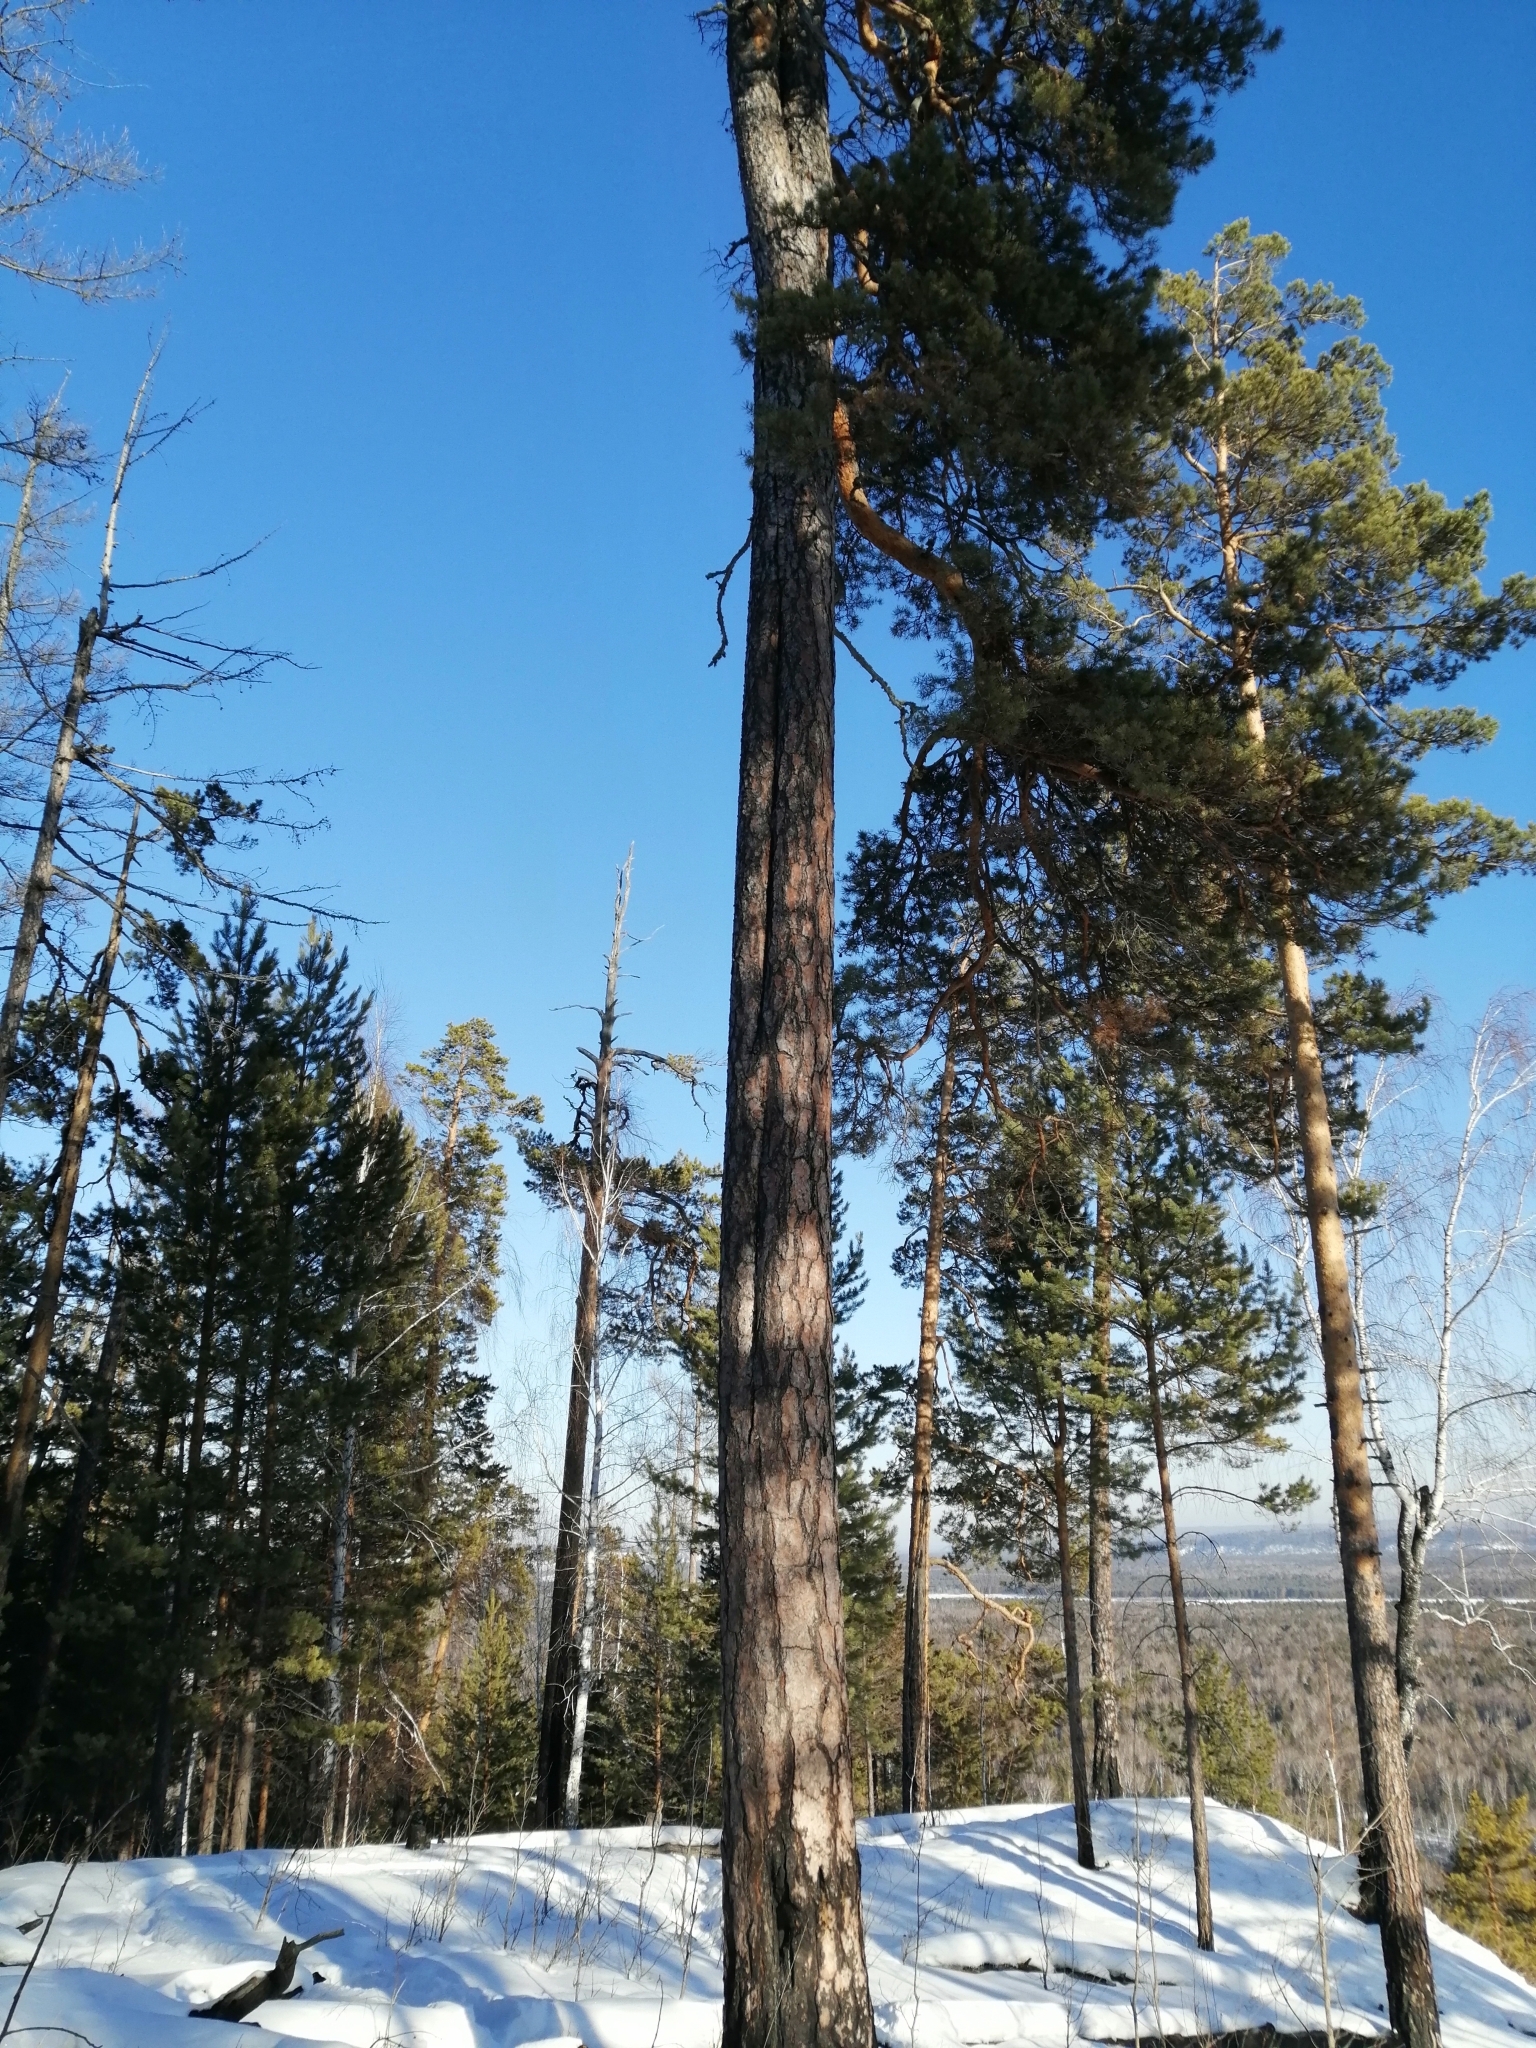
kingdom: Plantae
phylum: Tracheophyta
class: Pinopsida
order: Pinales
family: Pinaceae
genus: Pinus
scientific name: Pinus sylvestris
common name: Scots pine
